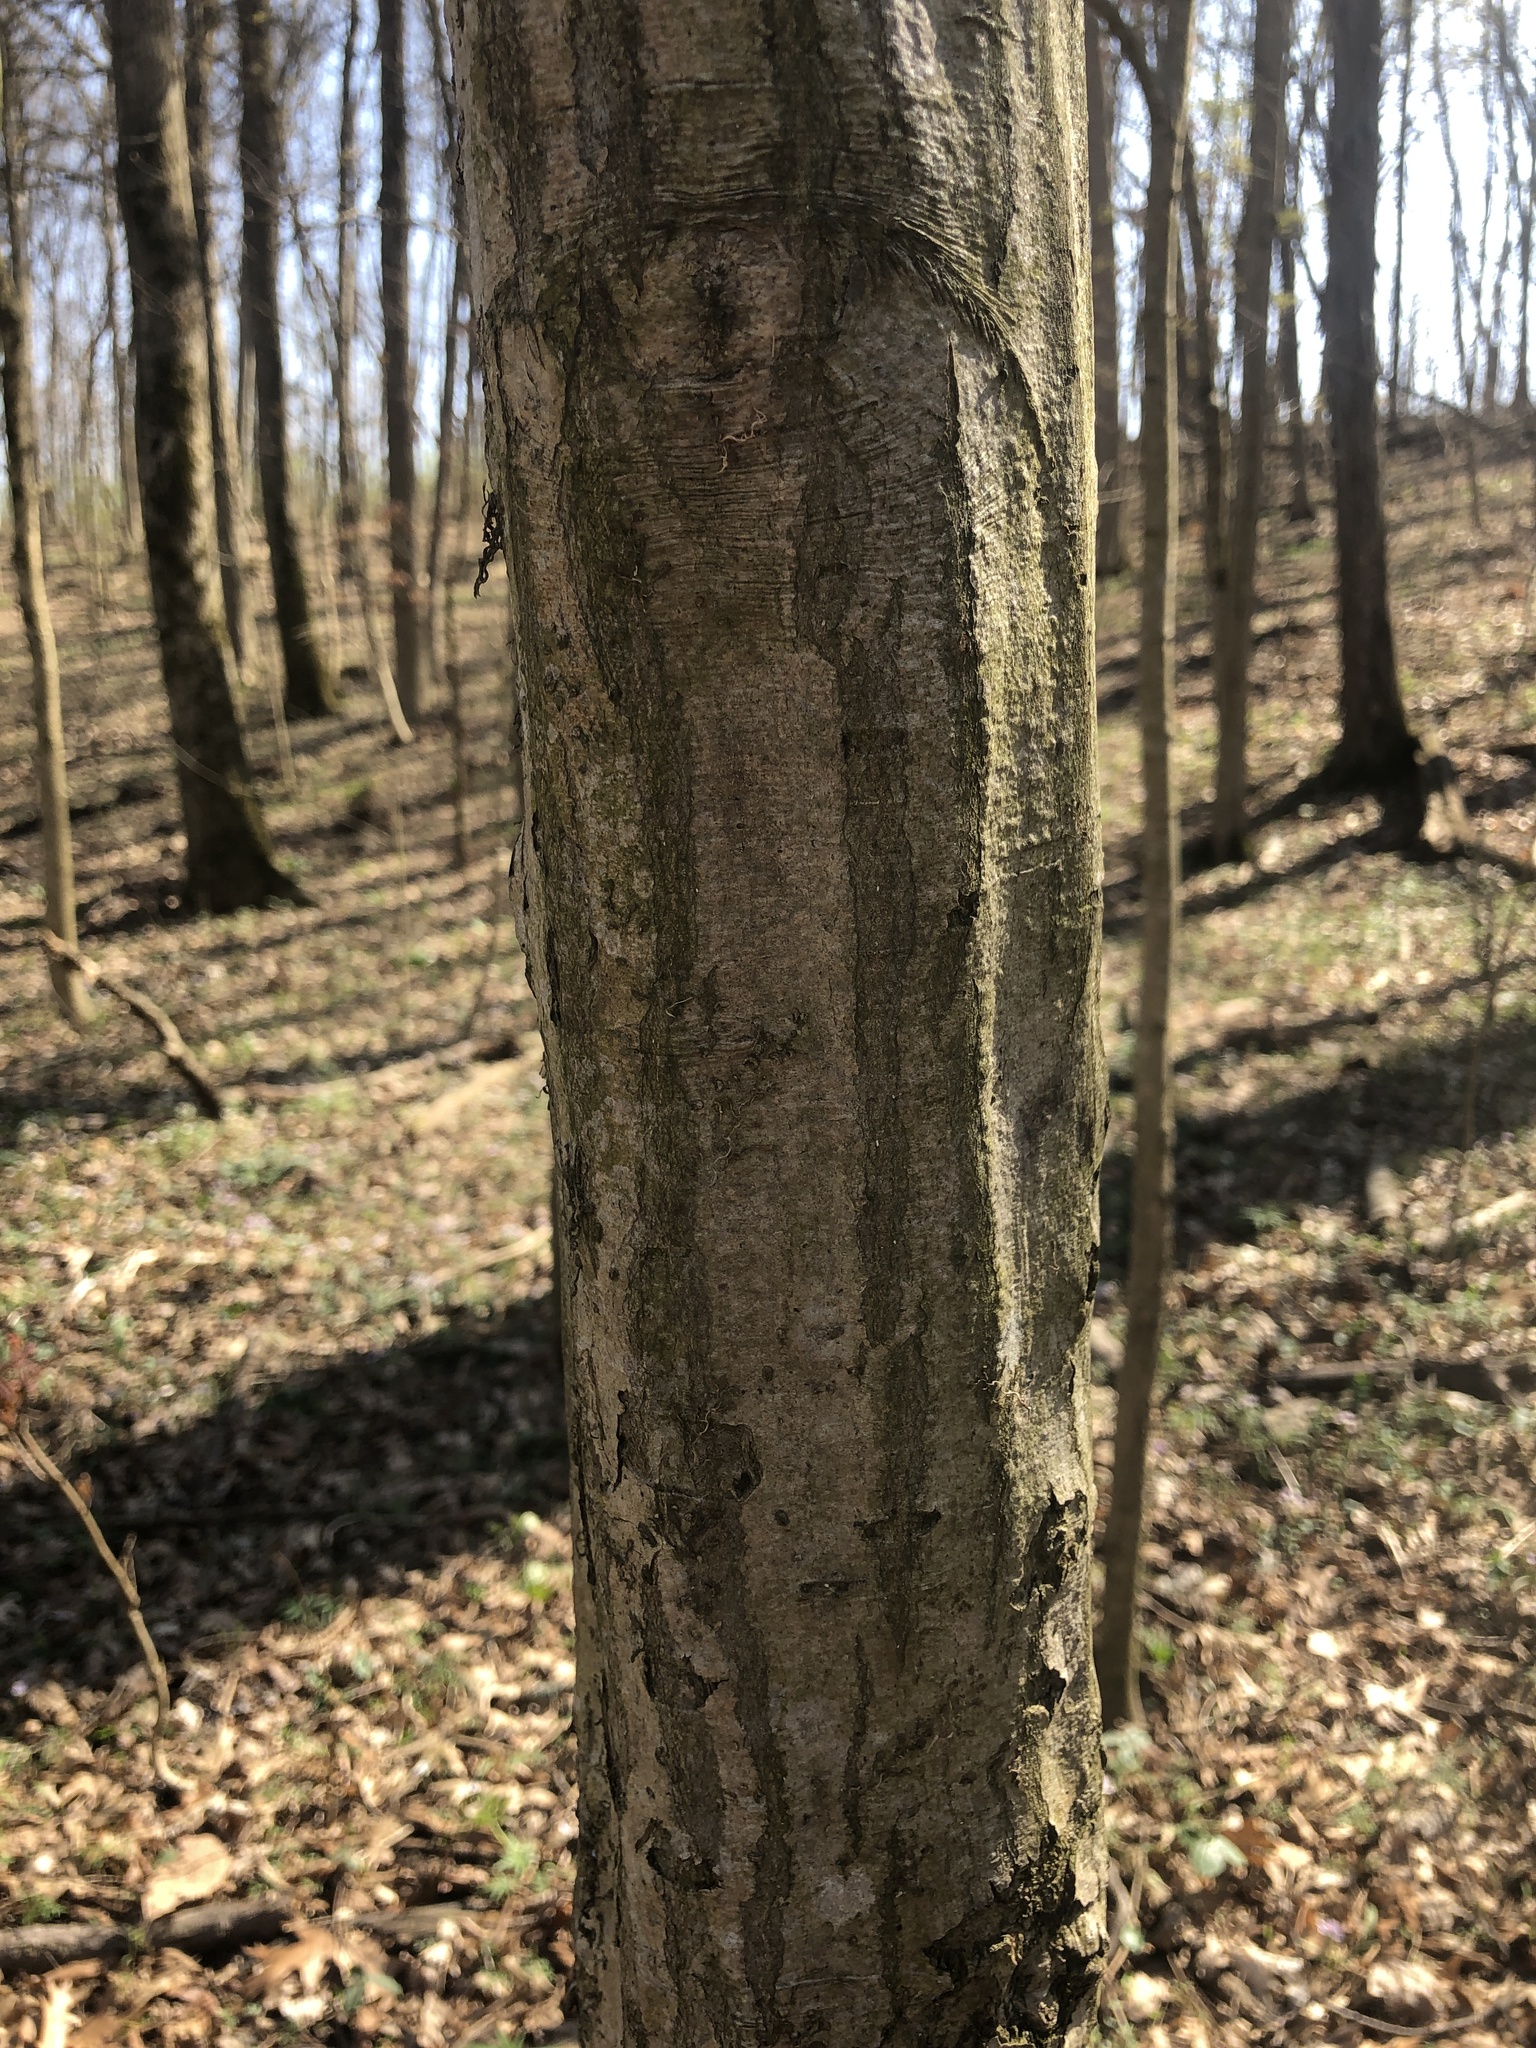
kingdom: Plantae
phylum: Tracheophyta
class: Magnoliopsida
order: Fagales
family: Betulaceae
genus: Carpinus
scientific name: Carpinus caroliniana
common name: American hornbeam
